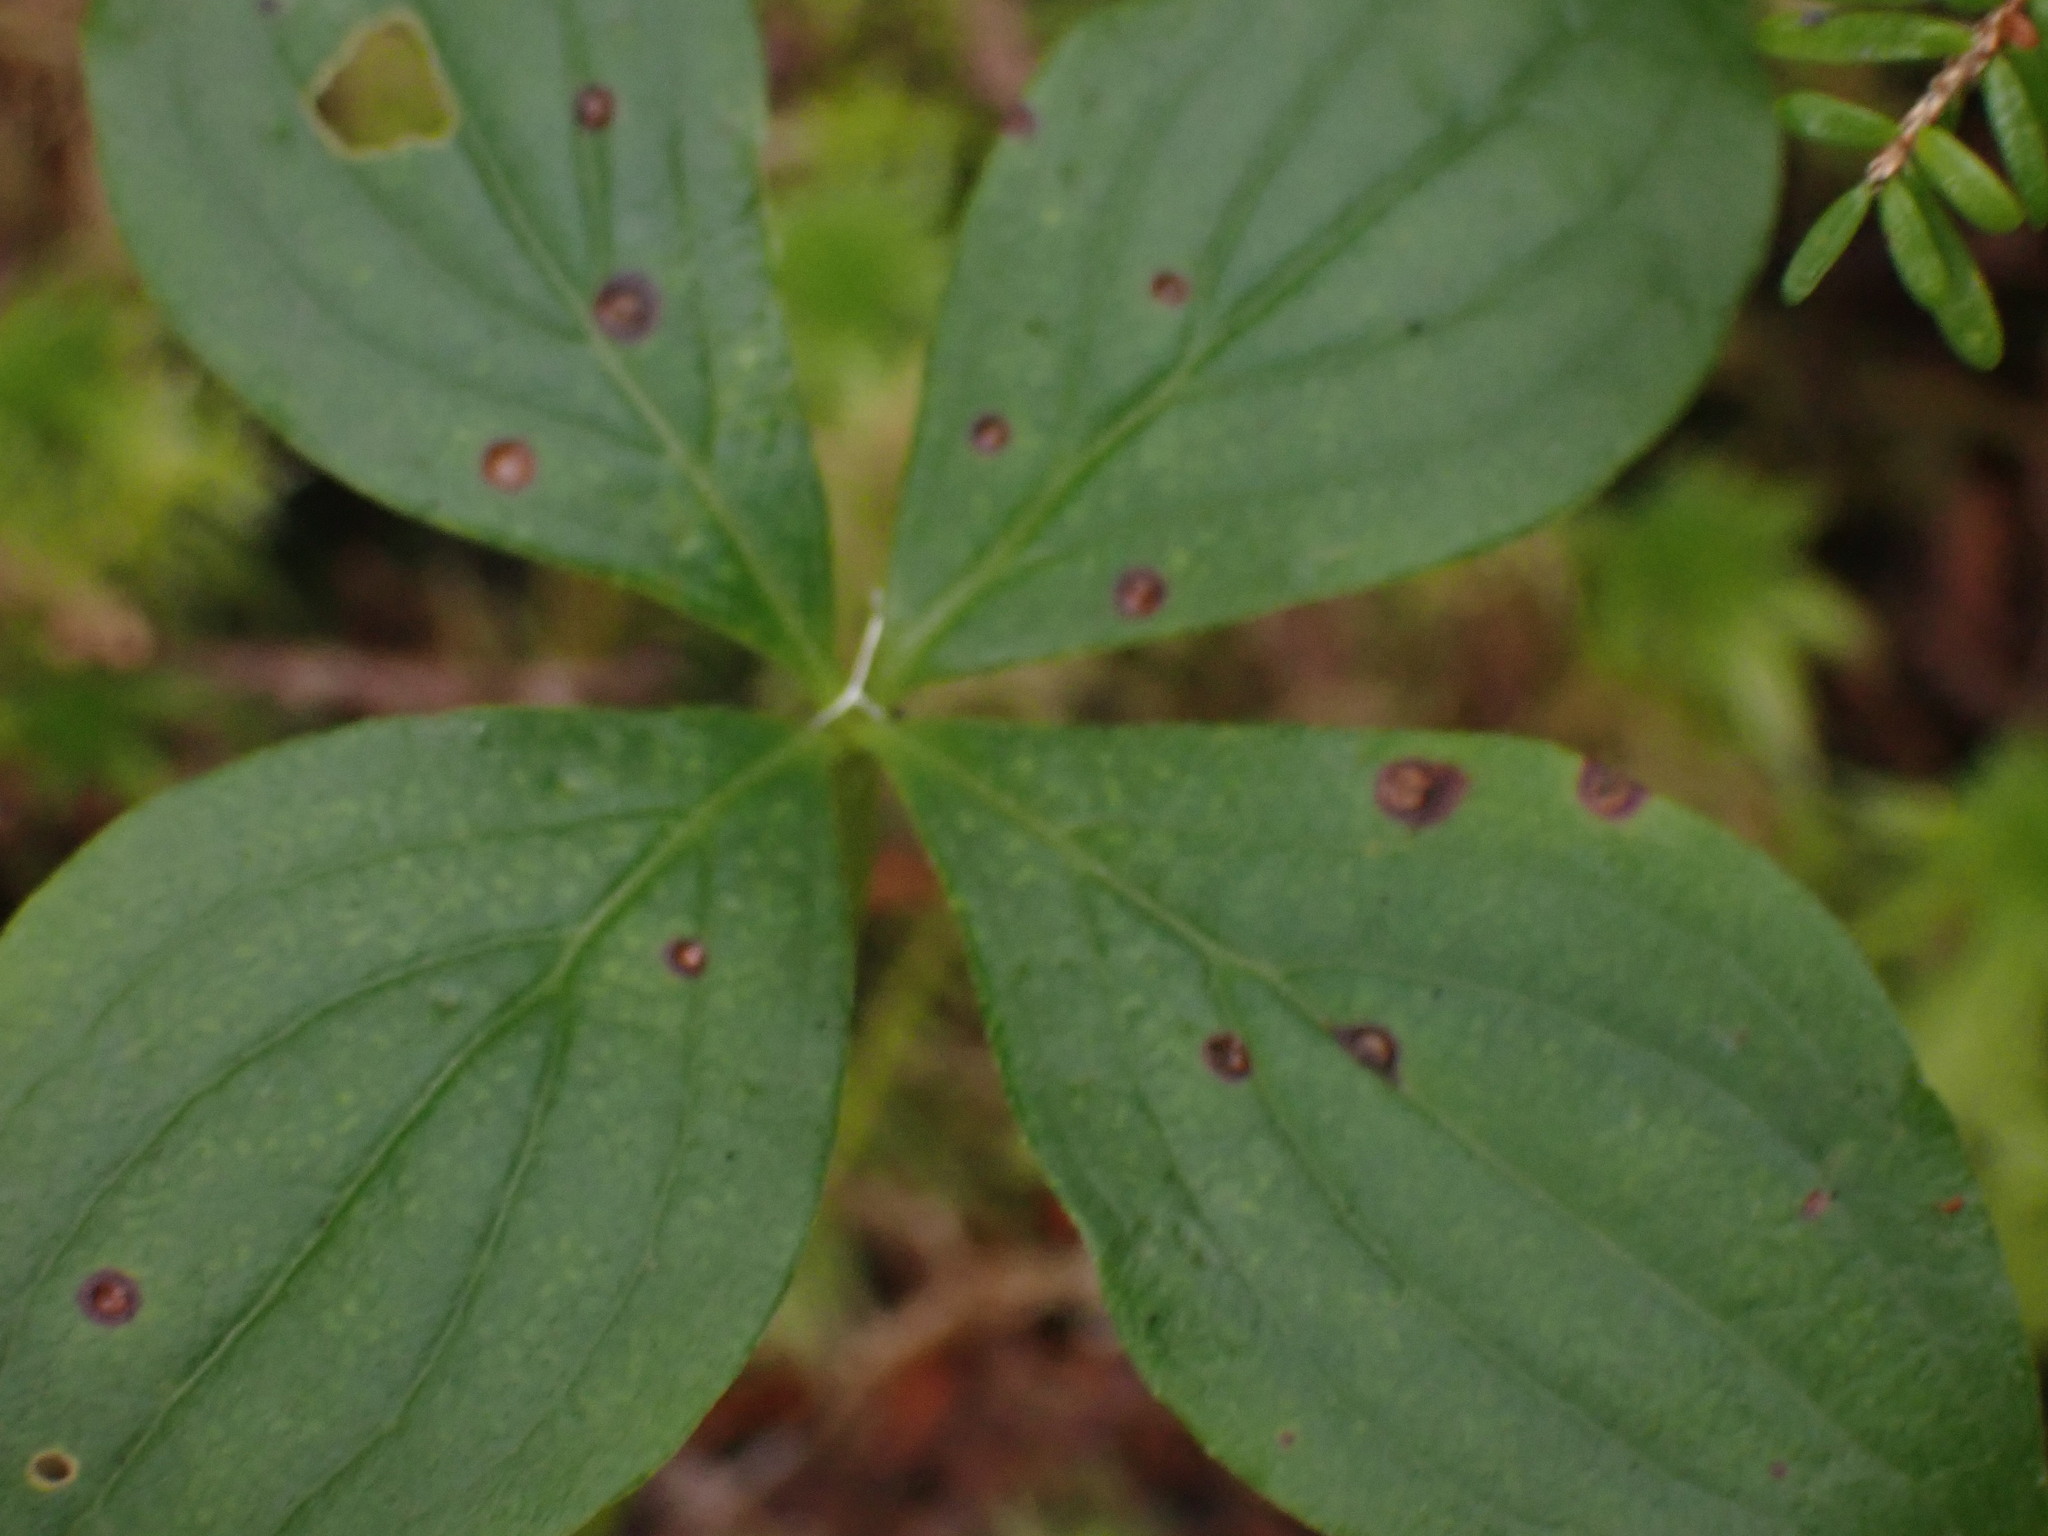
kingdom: Plantae
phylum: Tracheophyta
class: Magnoliopsida
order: Cornales
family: Cornaceae
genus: Cornus
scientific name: Cornus unalaschkensis
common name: Alaska bunchberry
